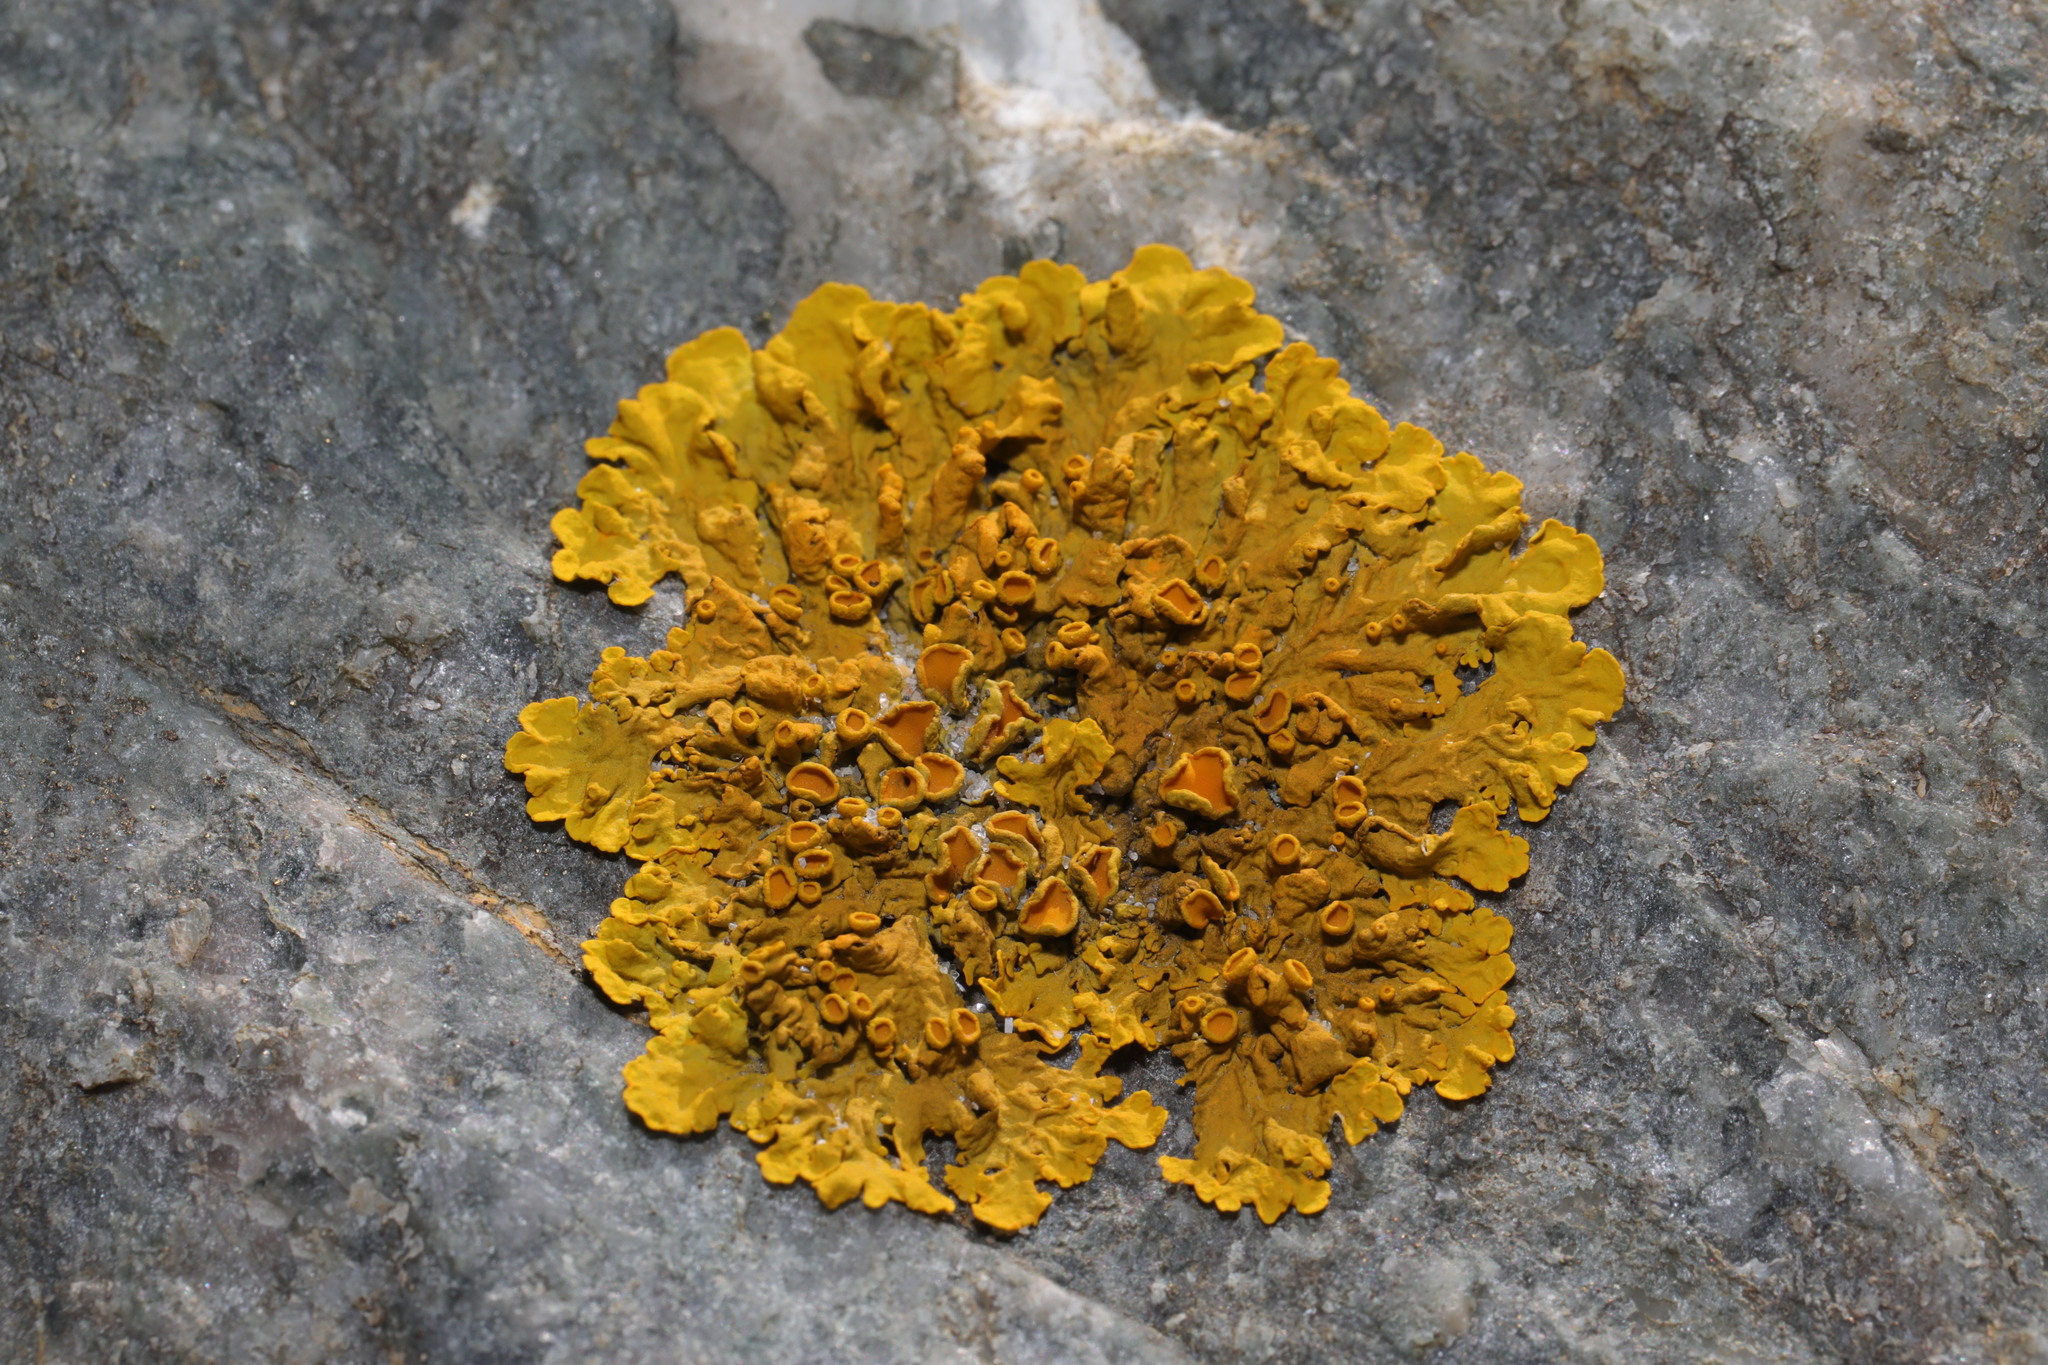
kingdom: Fungi
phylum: Ascomycota
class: Lecanoromycetes
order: Teloschistales
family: Teloschistaceae
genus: Xanthoria
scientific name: Xanthoria parietina
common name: Common orange lichen
